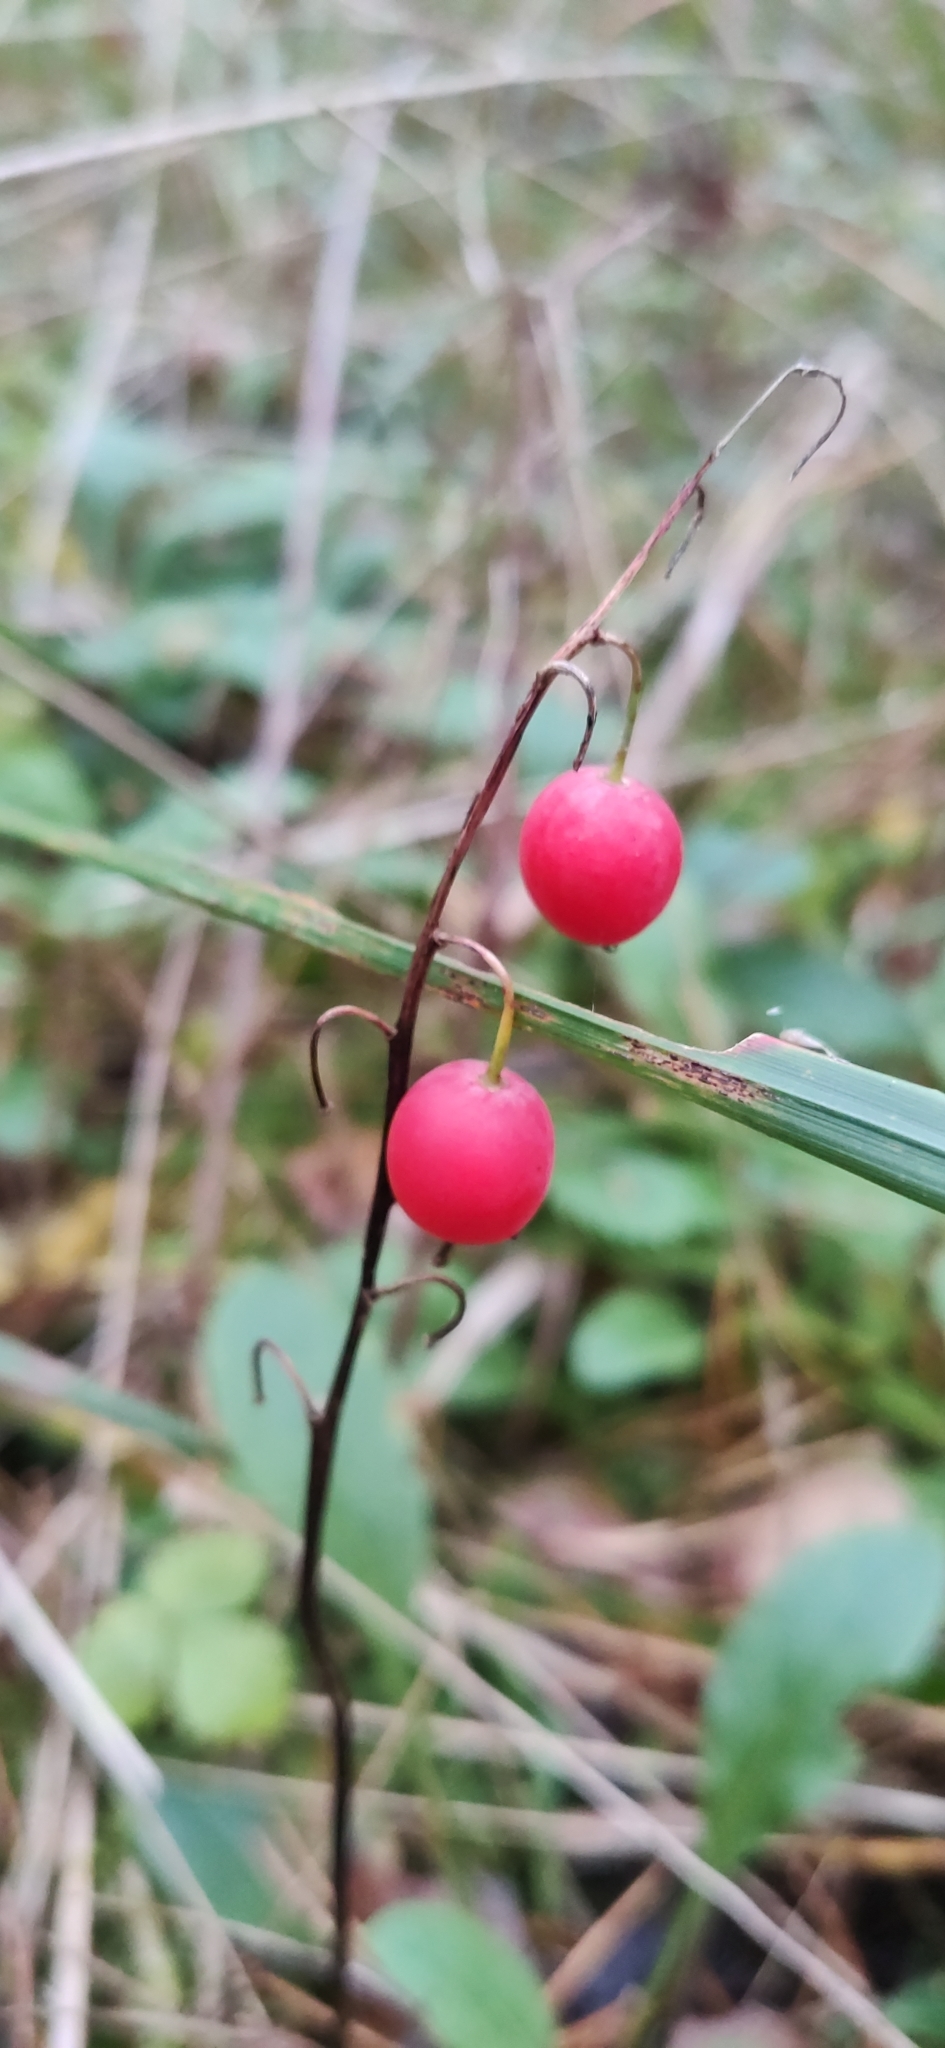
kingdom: Plantae
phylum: Tracheophyta
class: Liliopsida
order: Asparagales
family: Asparagaceae
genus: Convallaria
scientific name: Convallaria majalis
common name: Lily-of-the-valley
